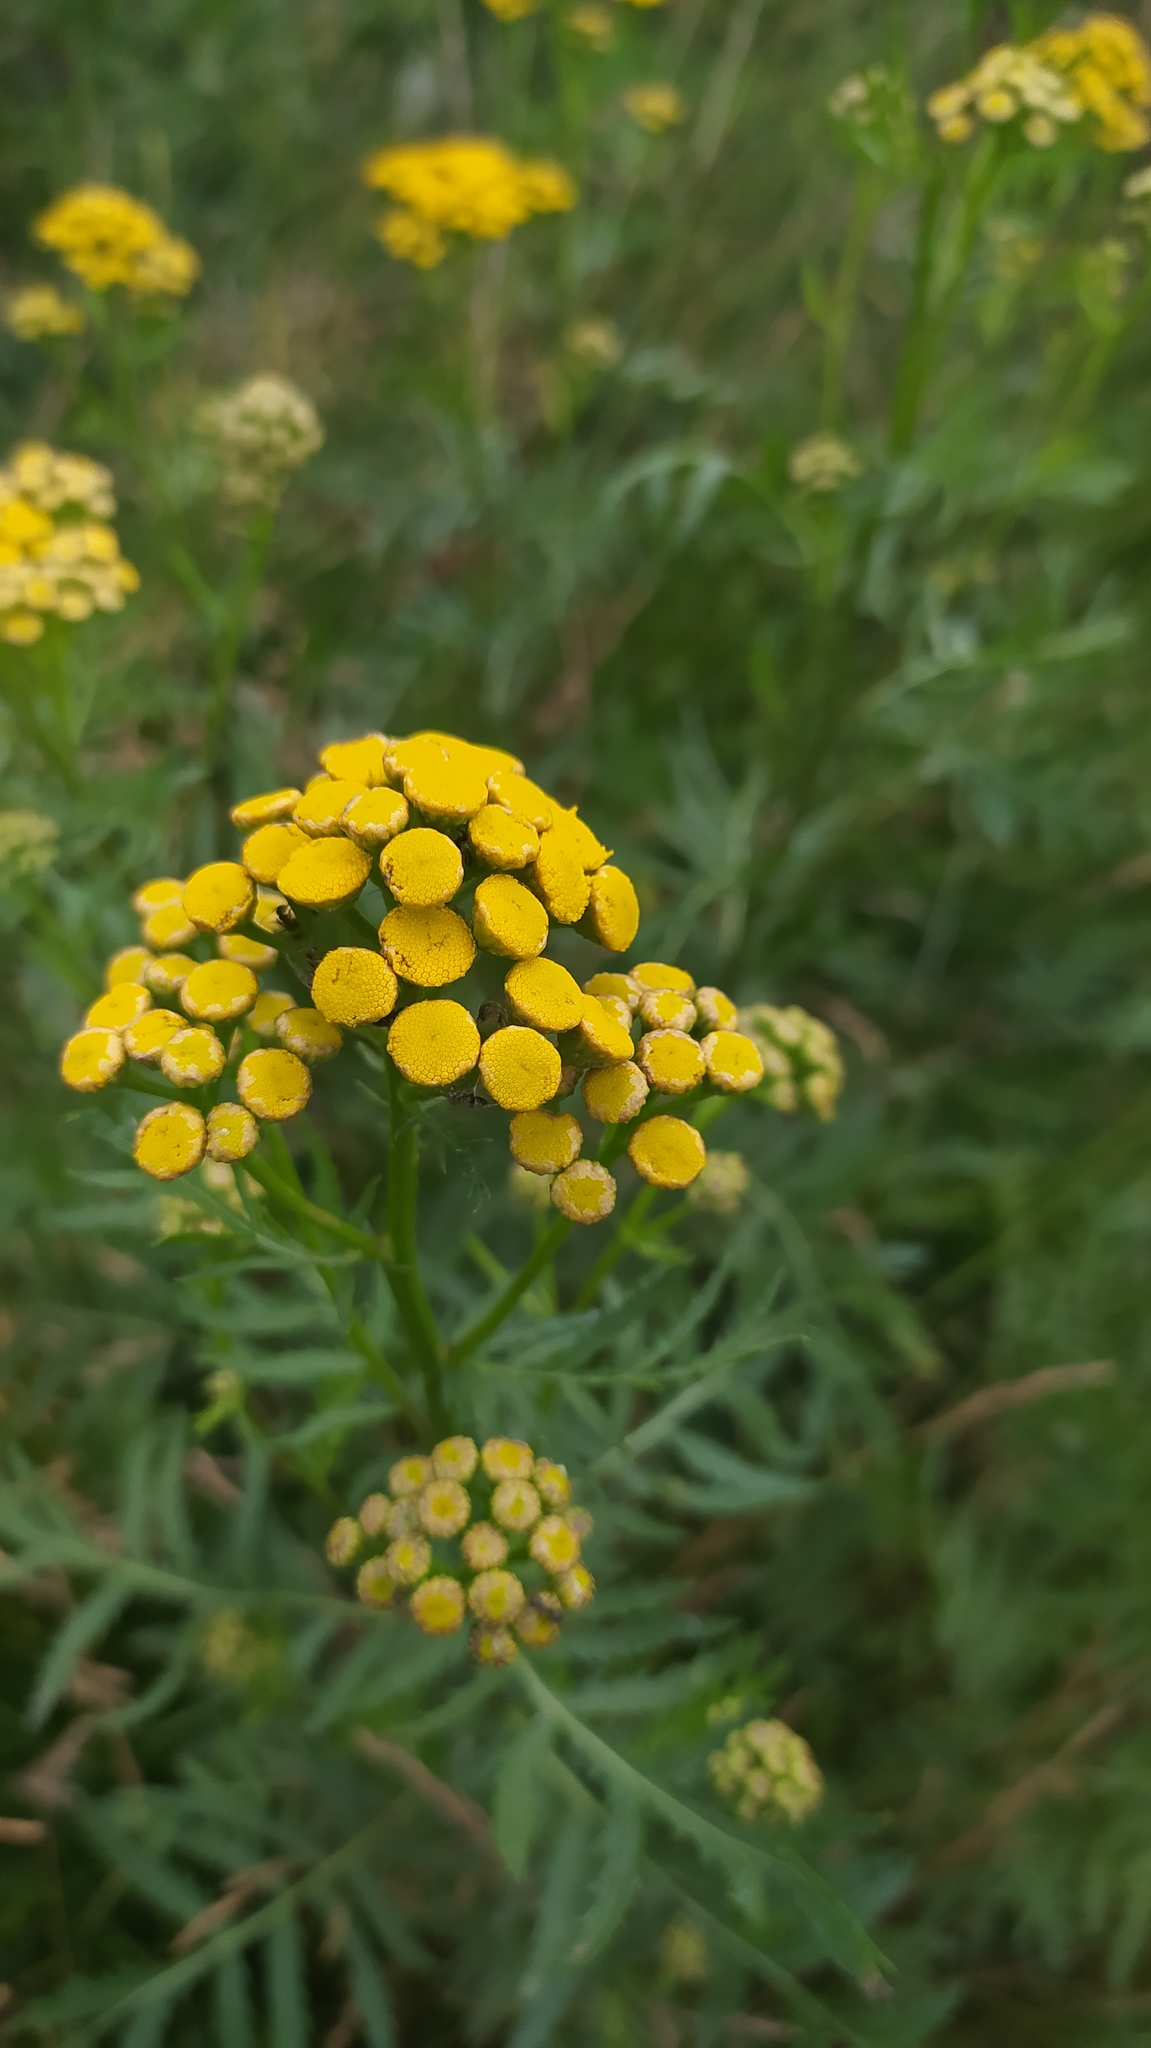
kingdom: Plantae
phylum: Tracheophyta
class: Magnoliopsida
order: Asterales
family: Asteraceae
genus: Tanacetum
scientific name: Tanacetum vulgare
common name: Common tansy
